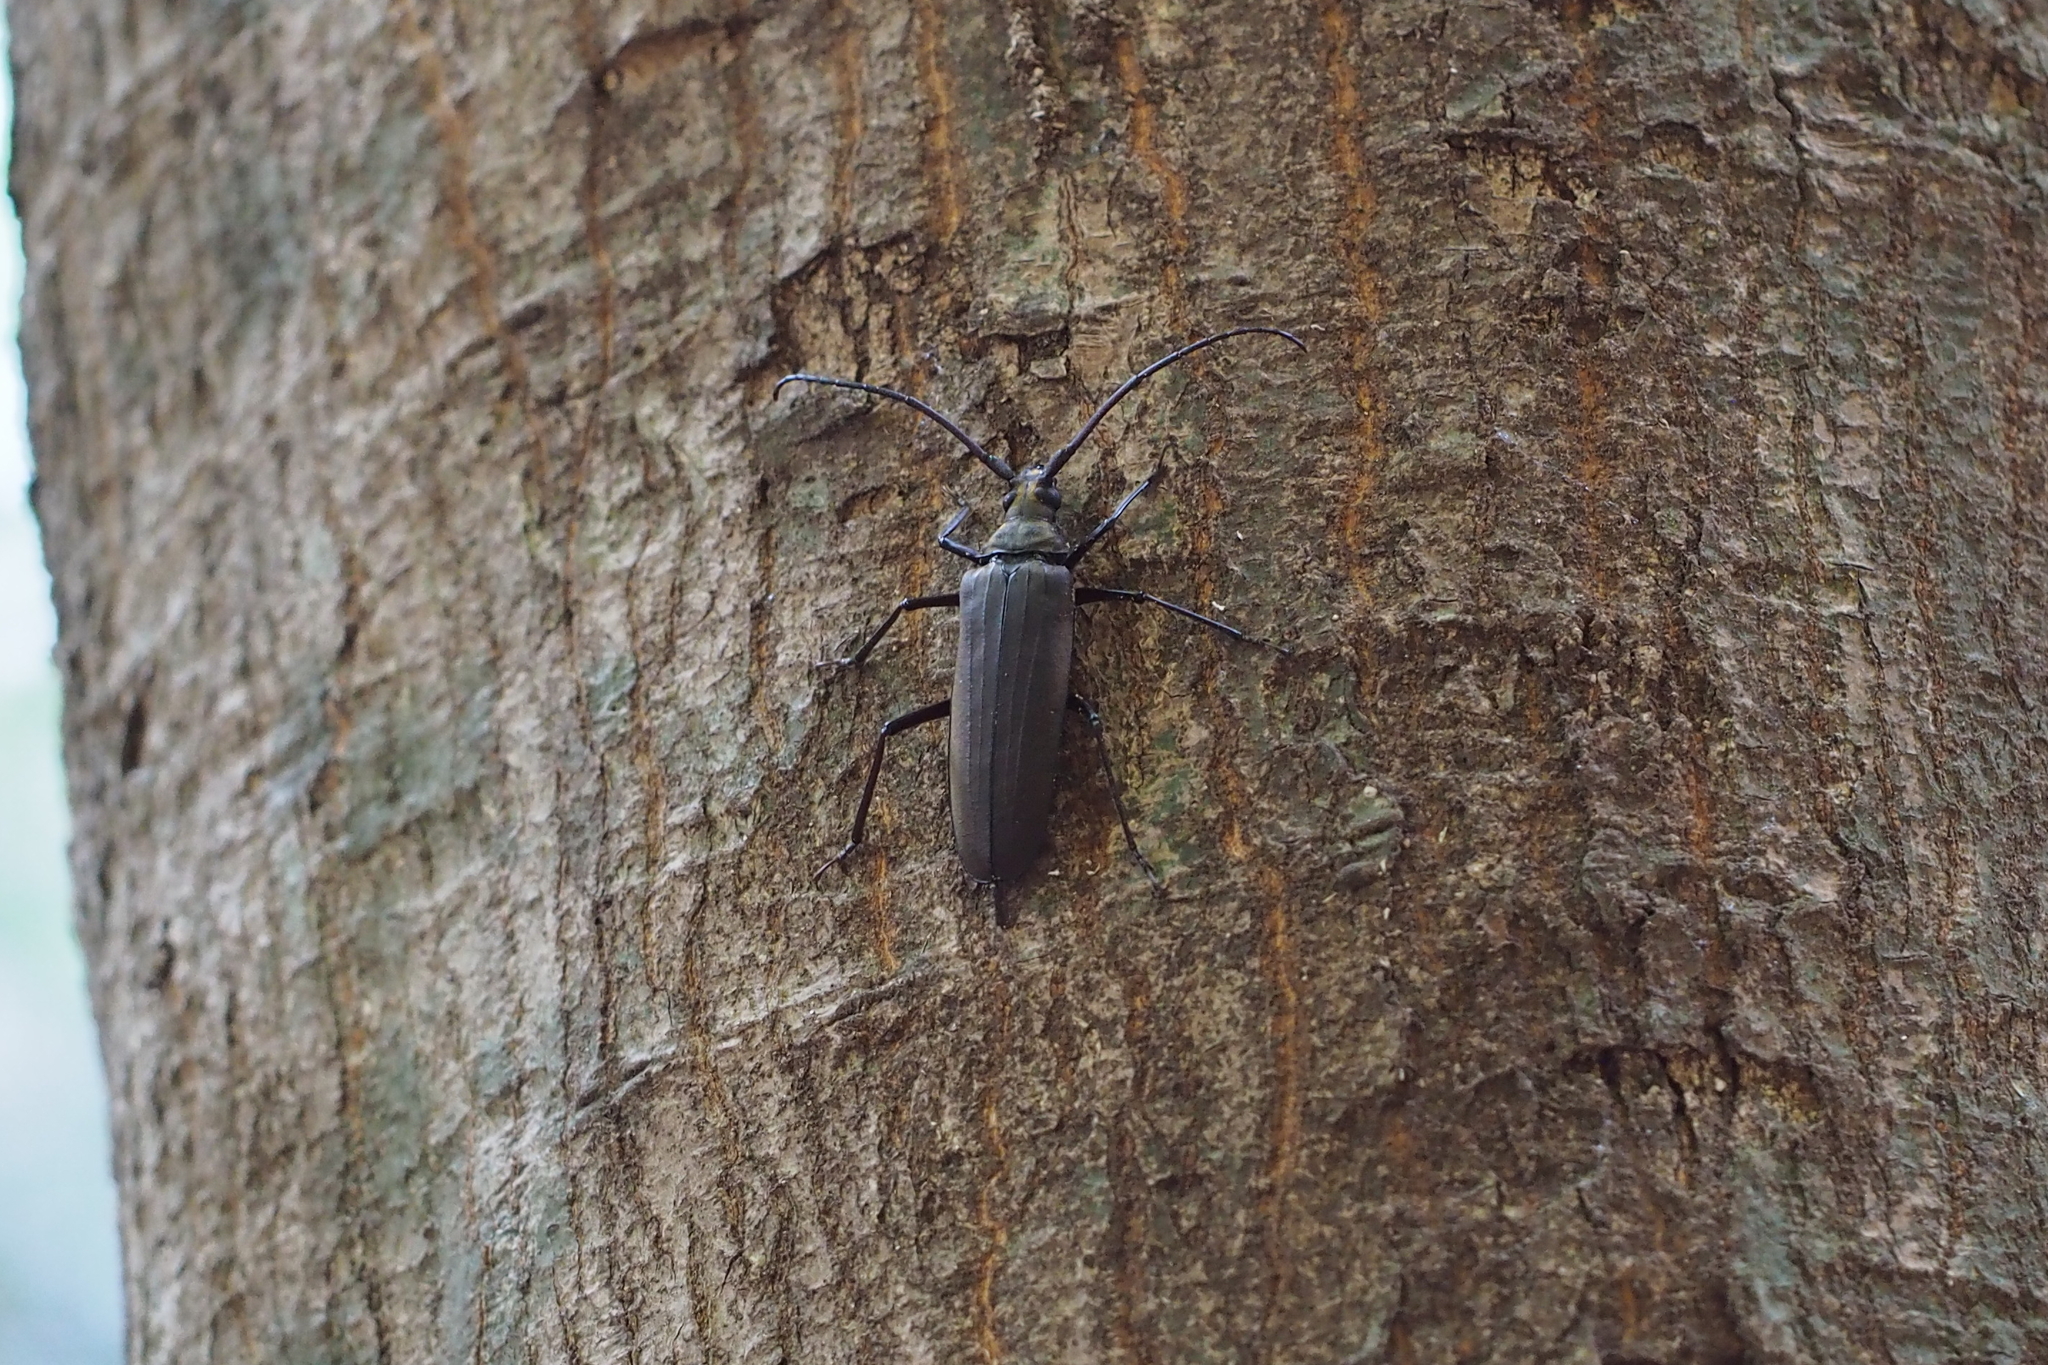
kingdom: Animalia
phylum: Arthropoda
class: Insecta
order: Coleoptera
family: Cerambycidae
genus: Aegosoma
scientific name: Aegosoma sinicum
